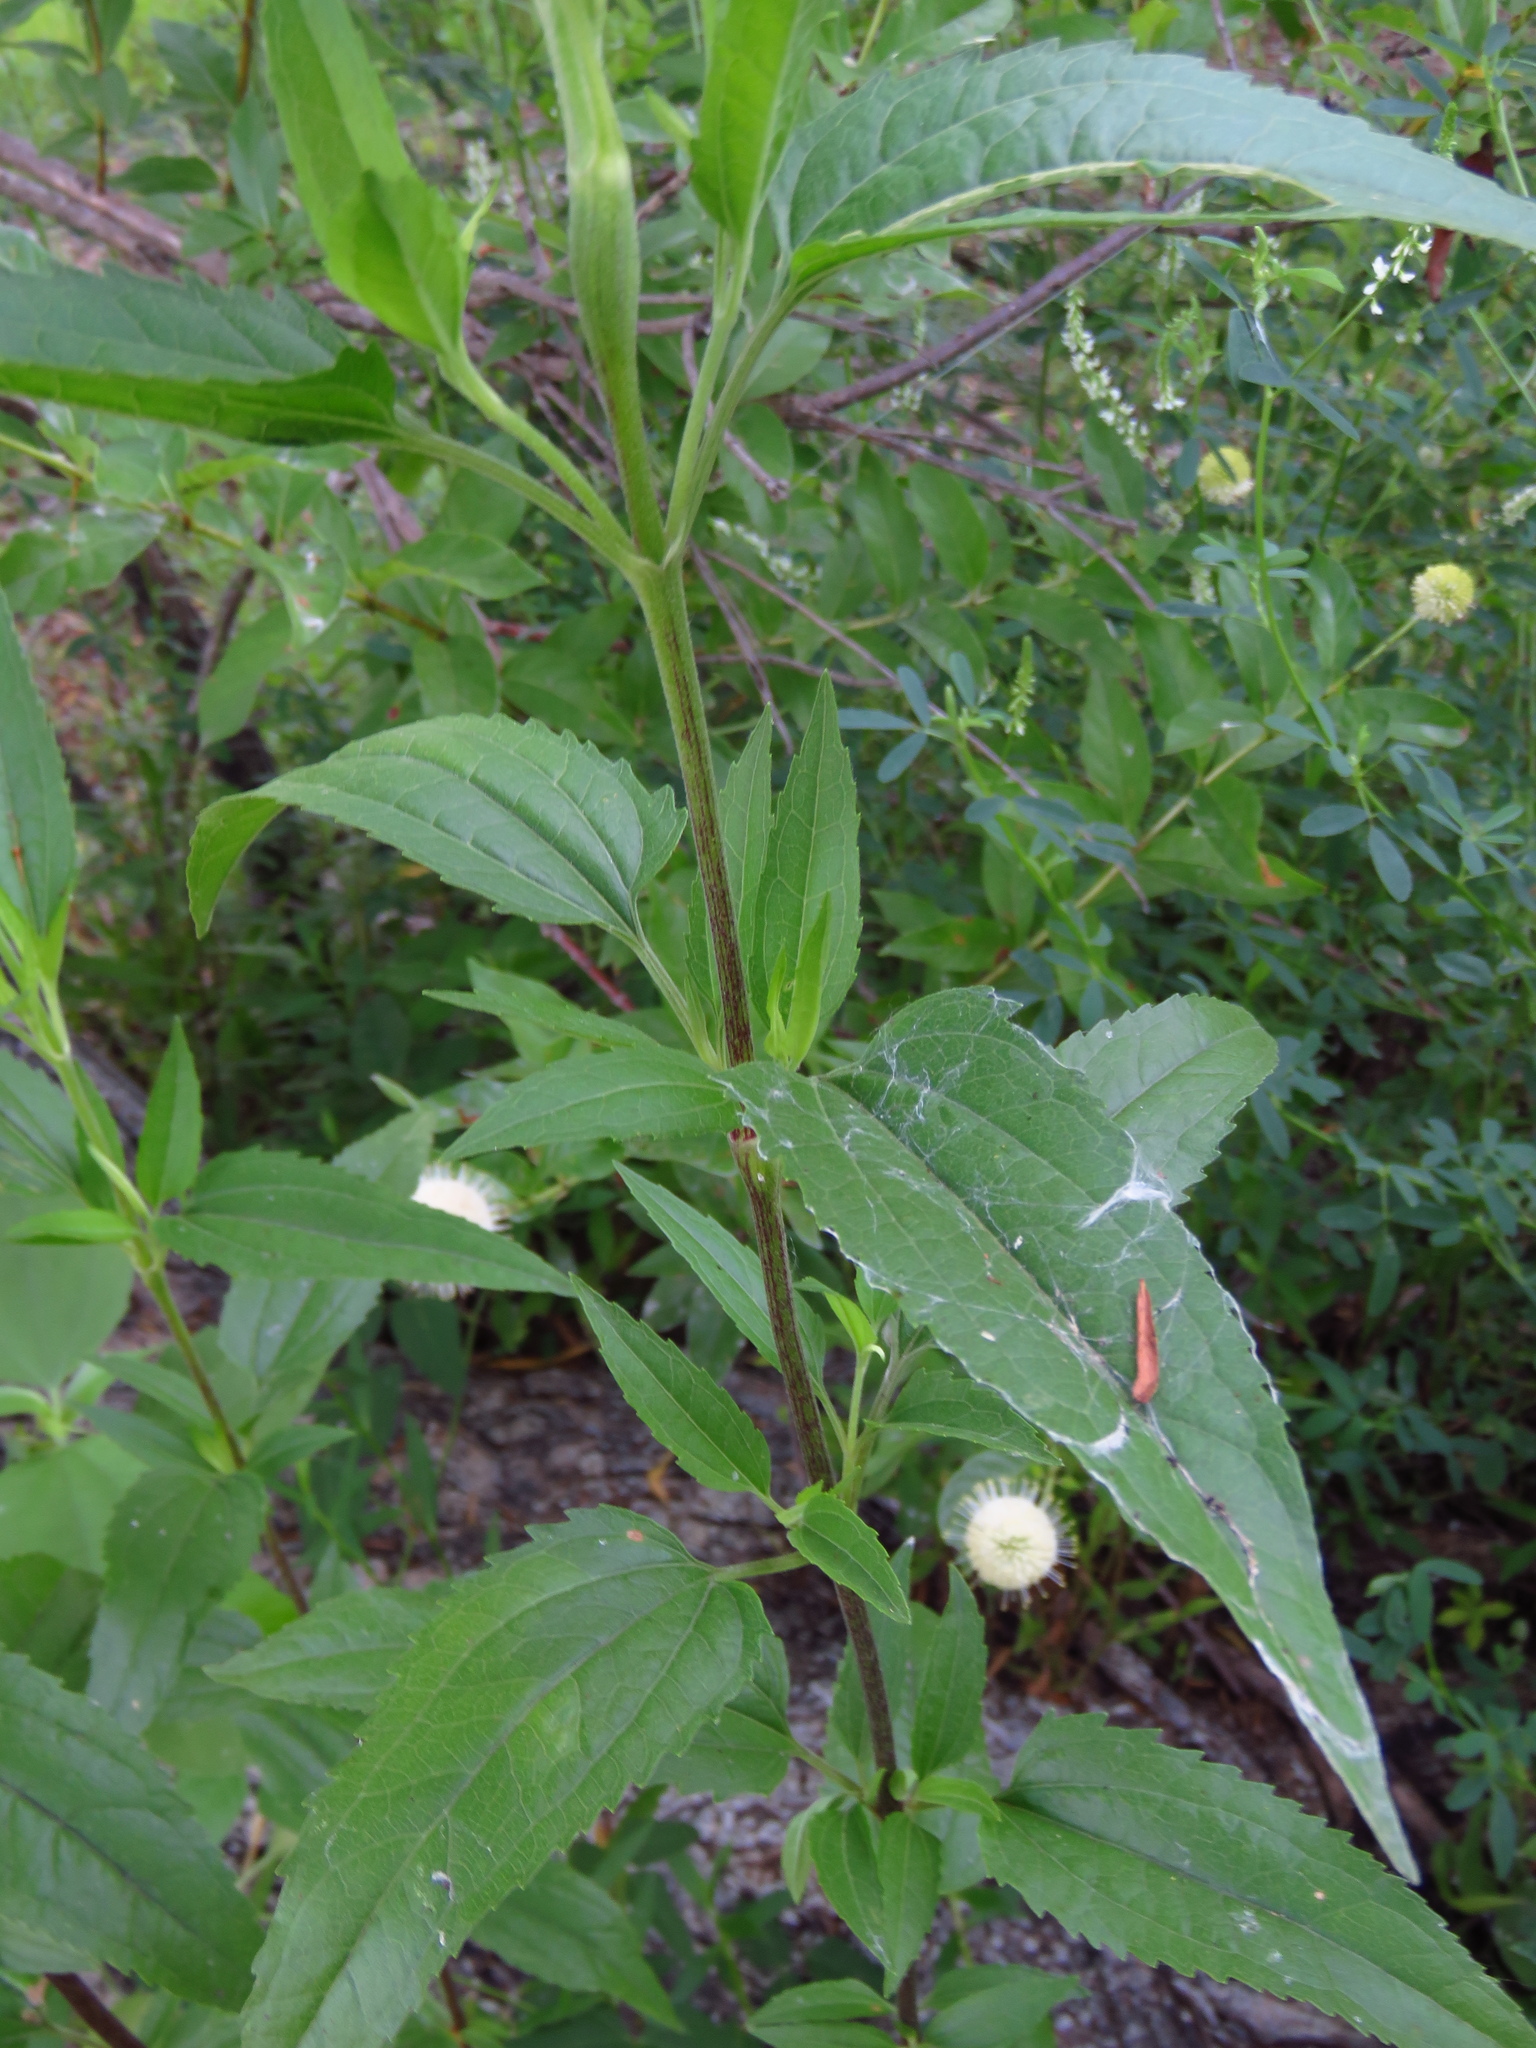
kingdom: Plantae
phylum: Tracheophyta
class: Magnoliopsida
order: Gentianales
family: Rubiaceae
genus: Cephalanthus
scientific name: Cephalanthus occidentalis
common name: Button-willow
